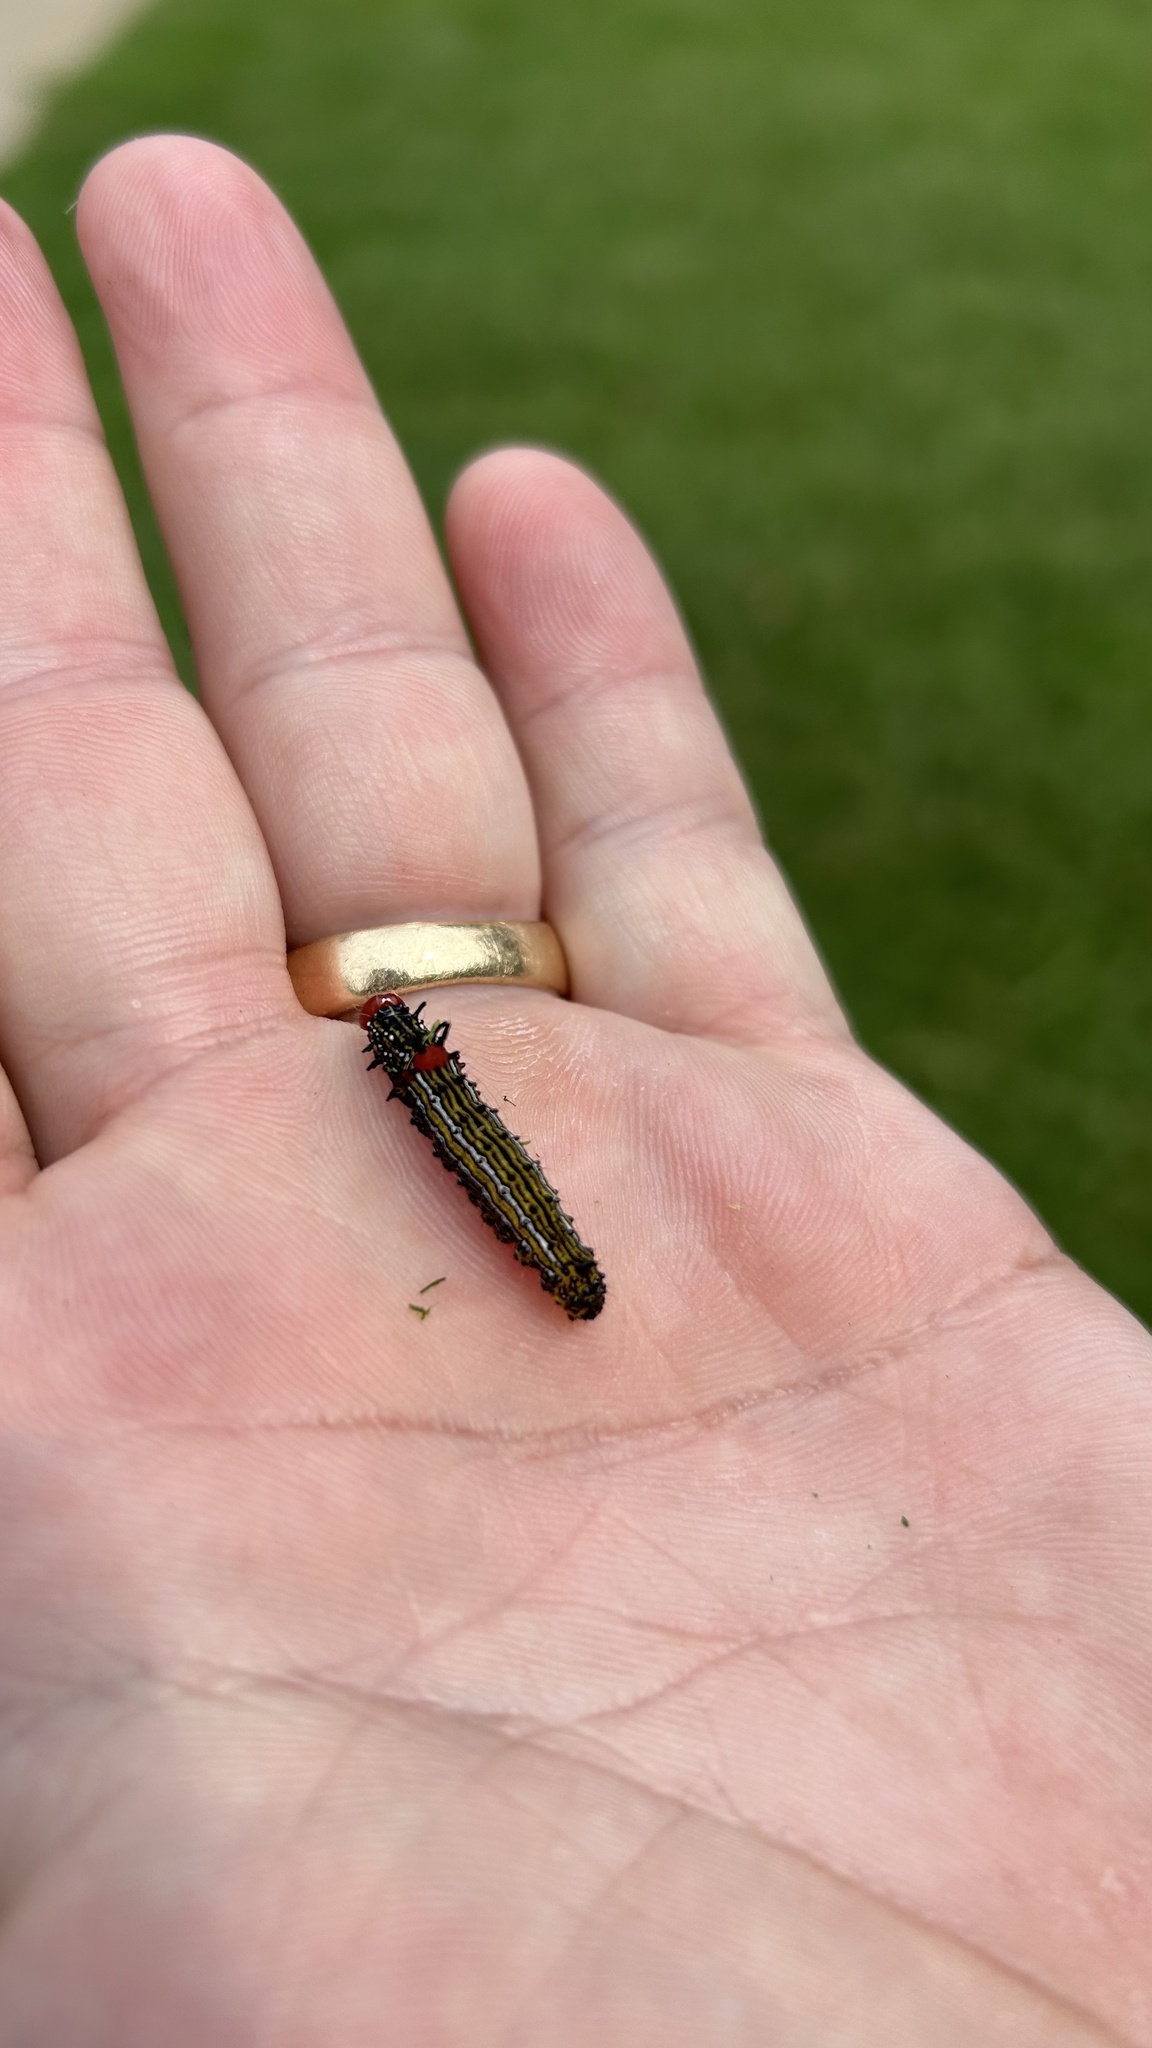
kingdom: Animalia
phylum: Arthropoda
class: Insecta
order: Lepidoptera
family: Notodontidae
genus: Schizura
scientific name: Schizura
